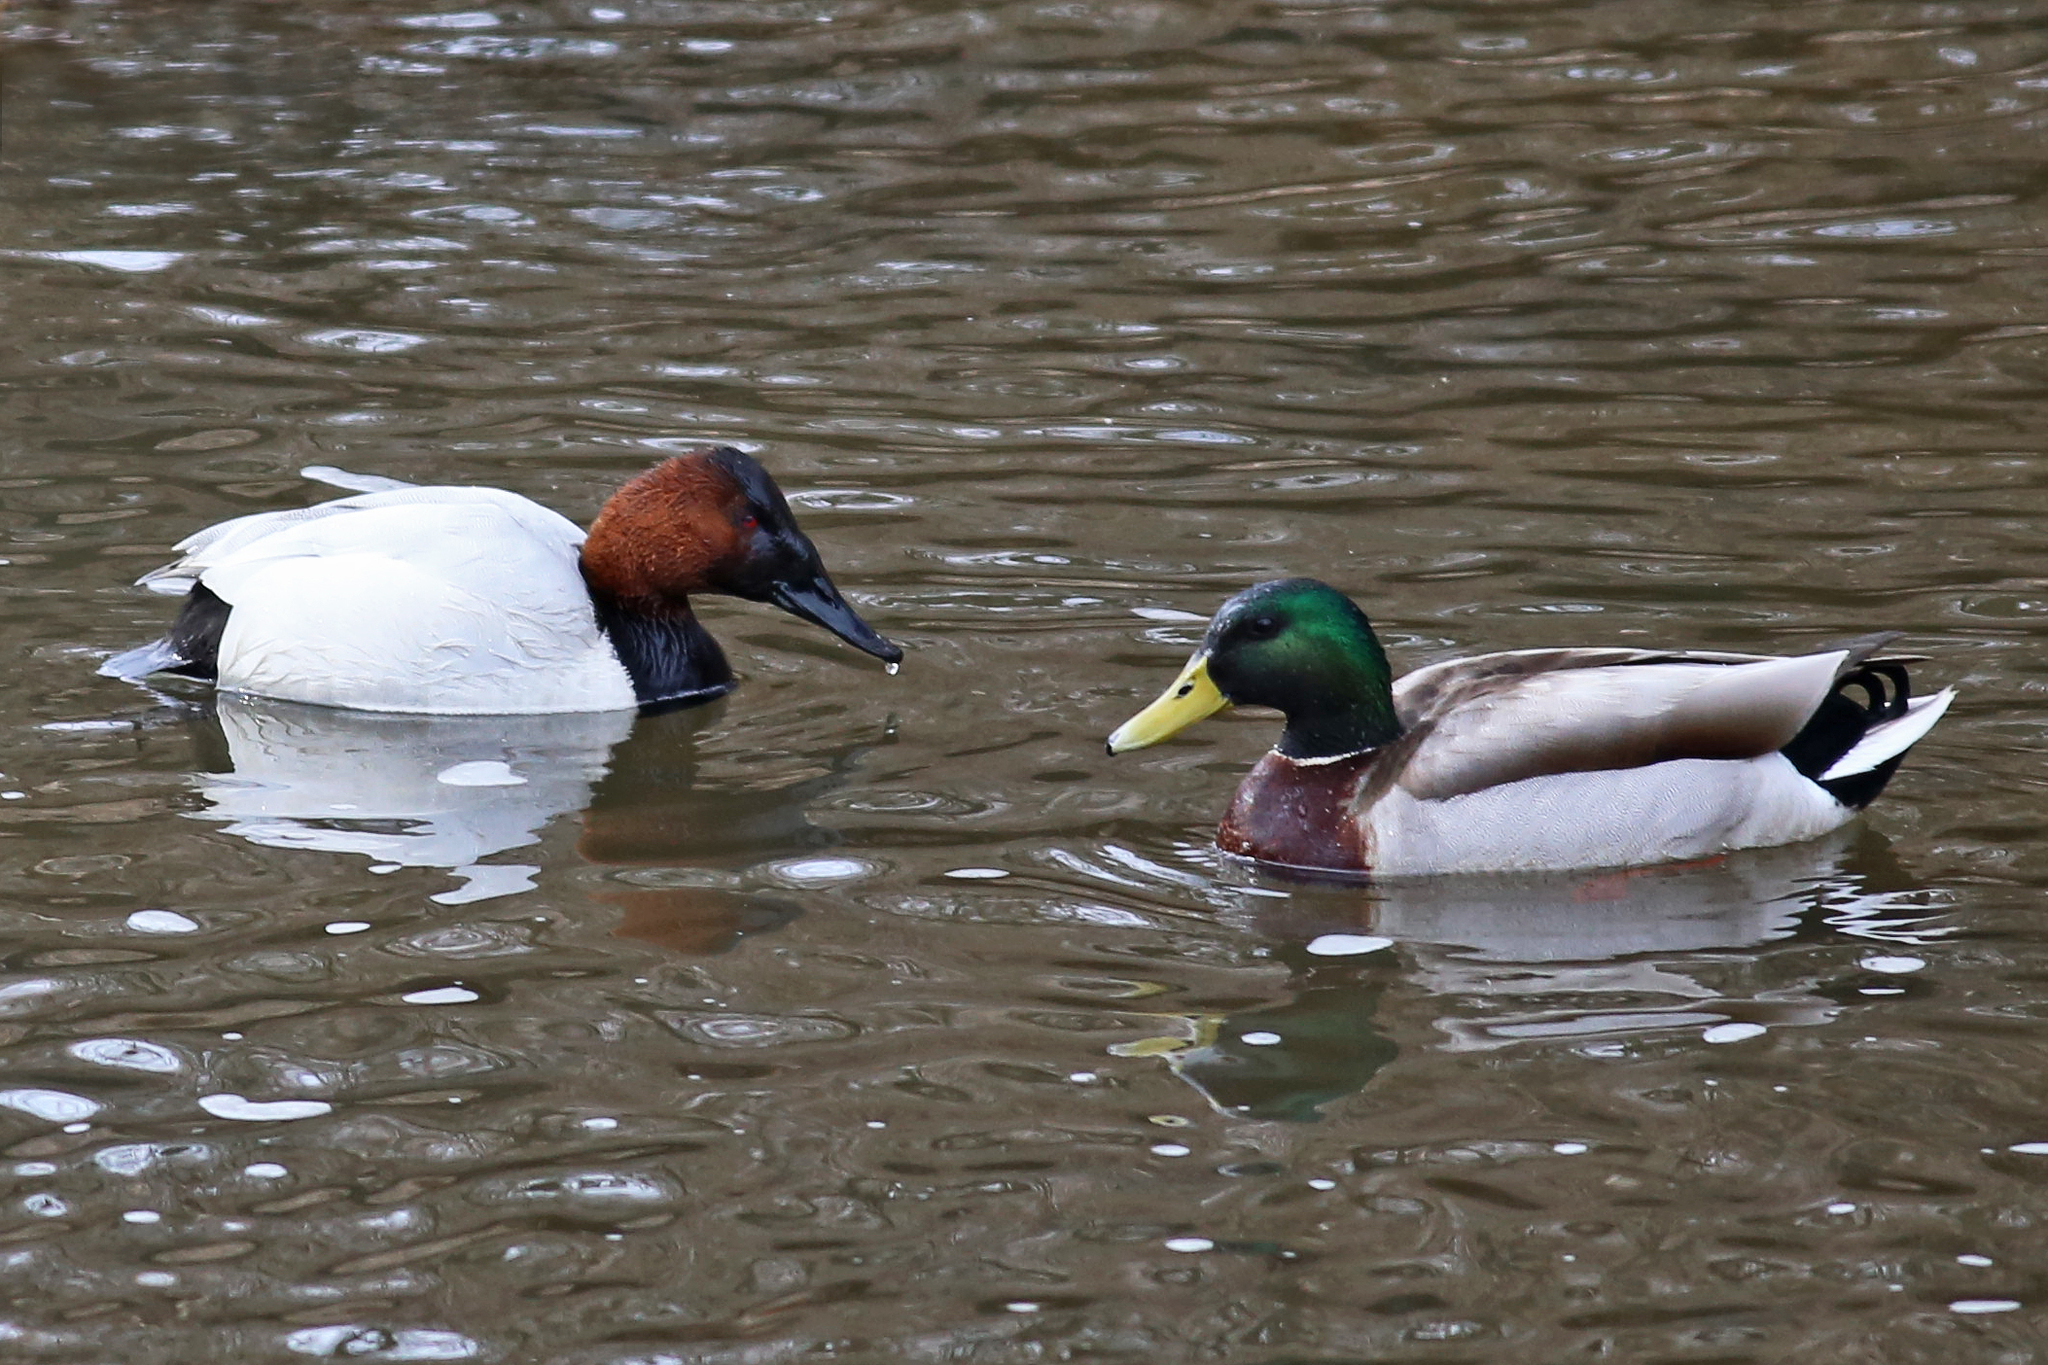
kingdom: Animalia
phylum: Chordata
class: Aves
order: Anseriformes
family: Anatidae
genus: Aythya
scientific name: Aythya valisineria
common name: Canvasback
